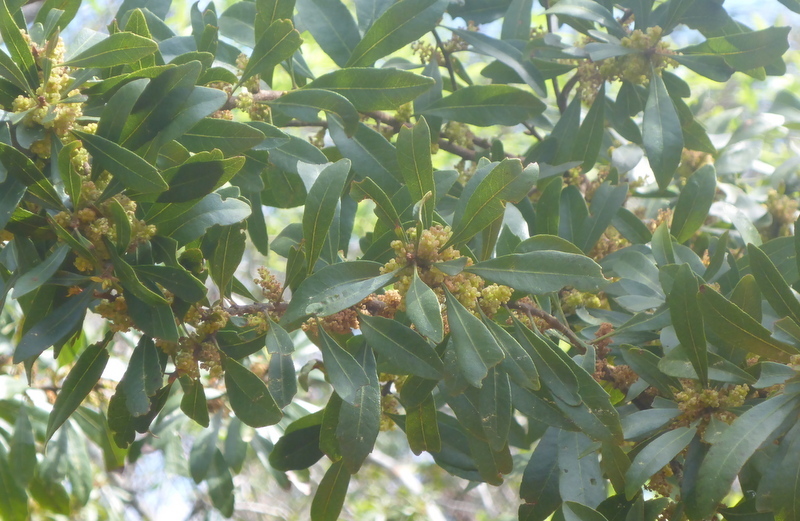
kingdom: Plantae
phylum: Tracheophyta
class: Magnoliopsida
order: Fagales
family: Myricaceae
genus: Morella
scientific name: Morella cerifera
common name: Wax myrtle
